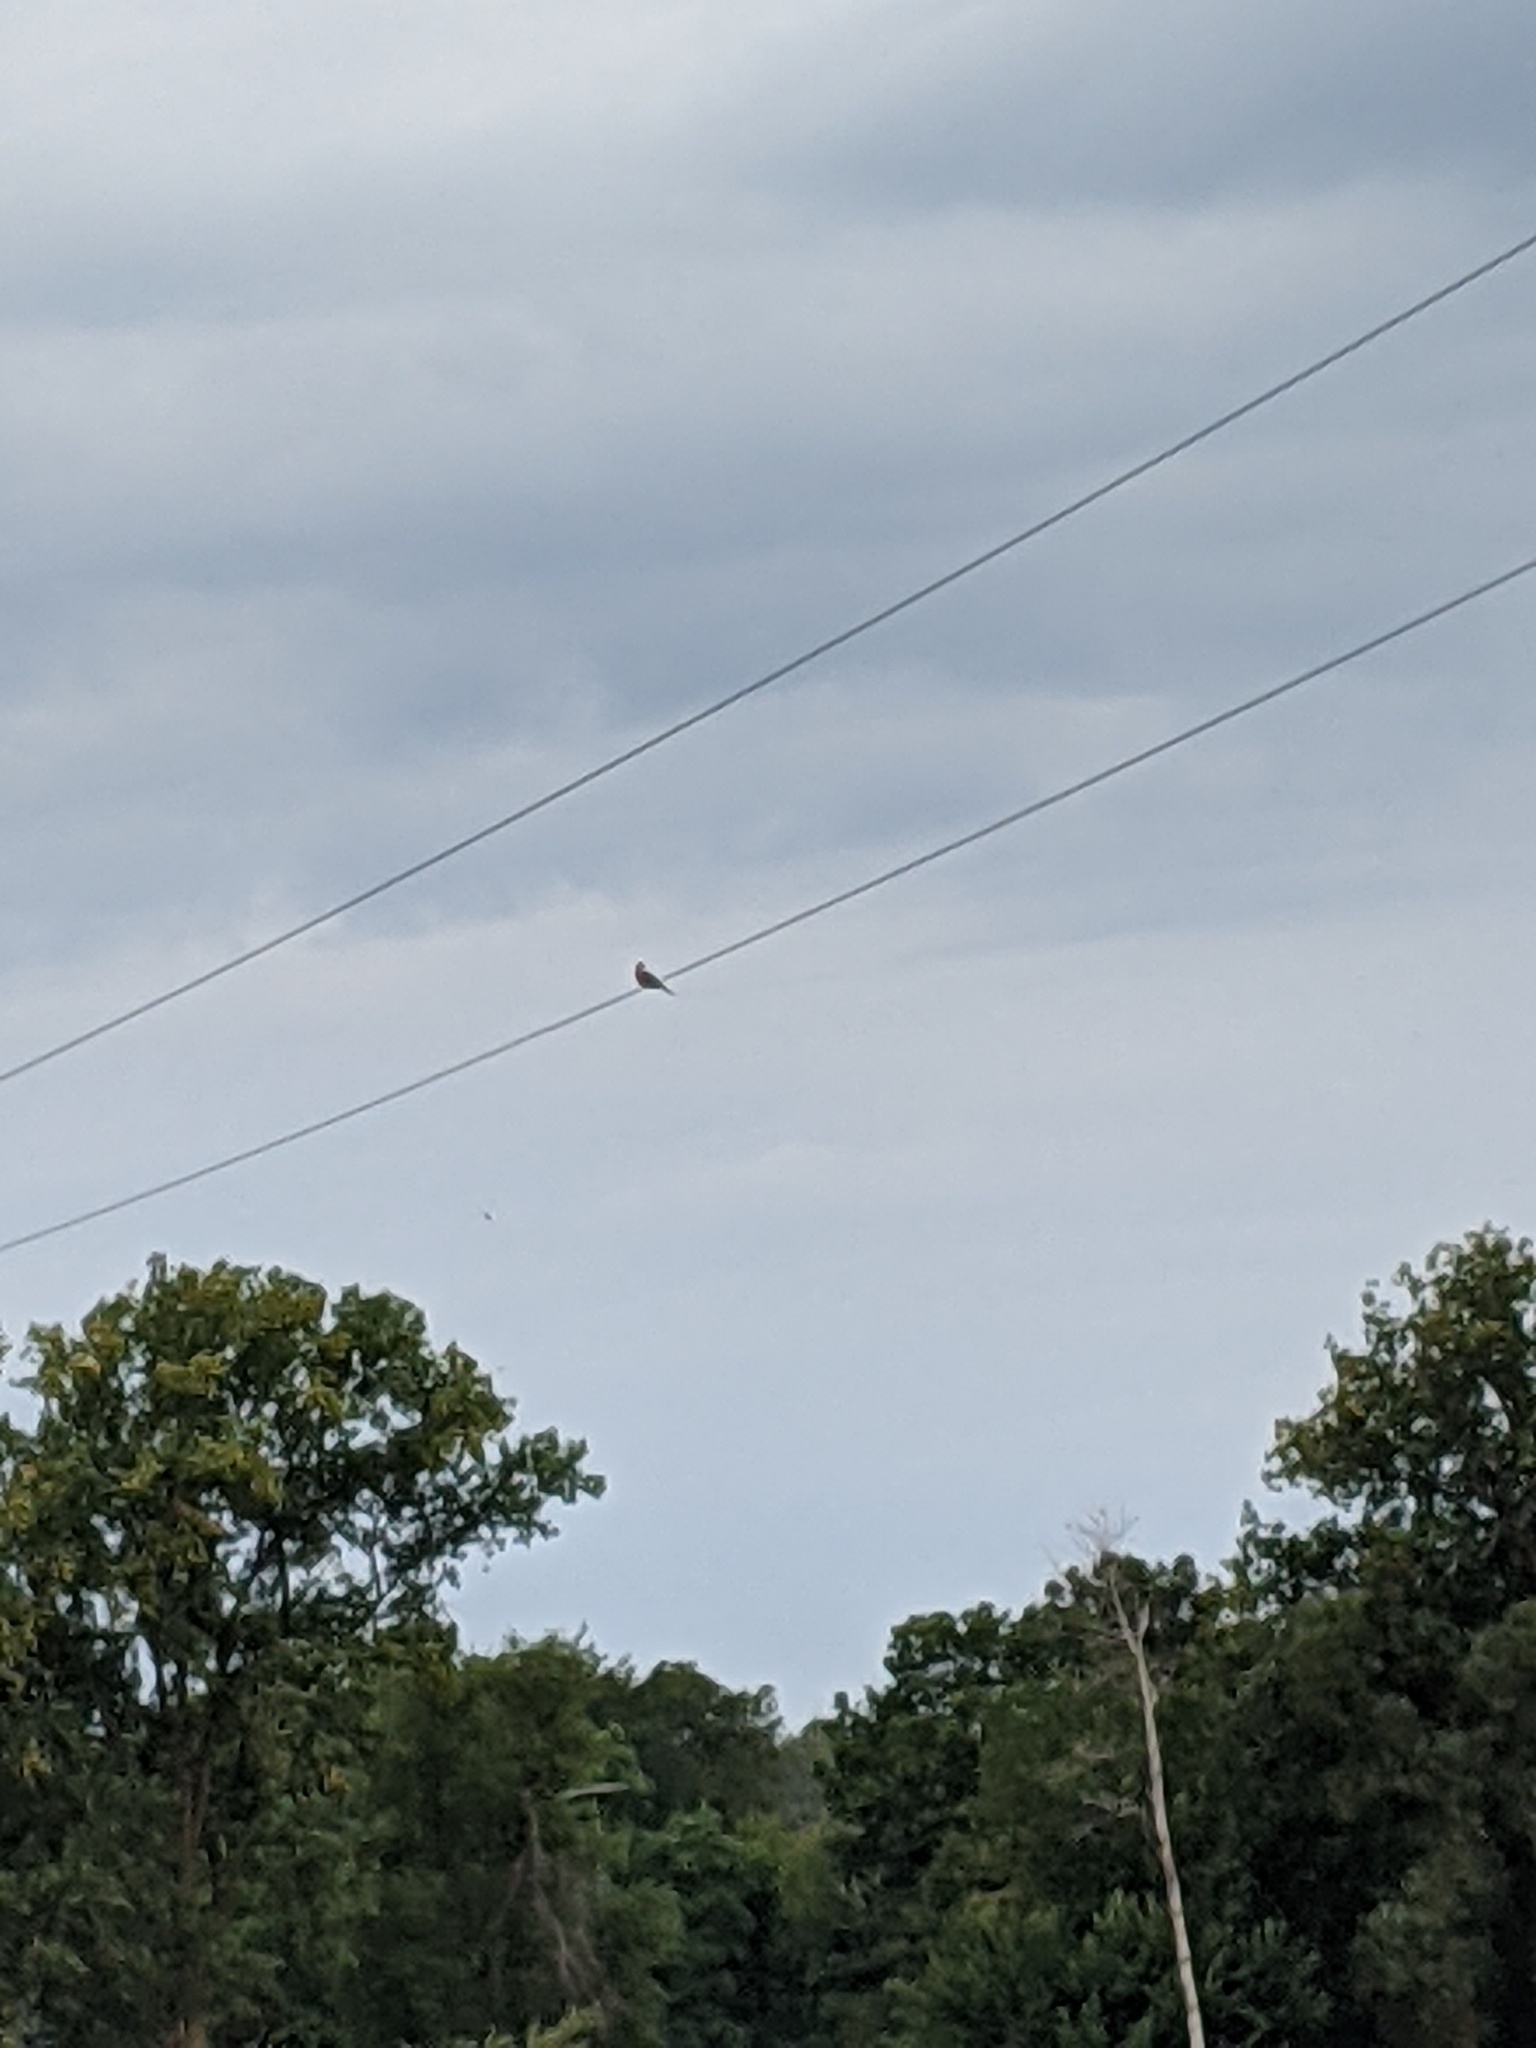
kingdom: Animalia
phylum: Chordata
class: Aves
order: Columbiformes
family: Columbidae
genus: Zenaida
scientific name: Zenaida macroura
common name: Mourning dove
